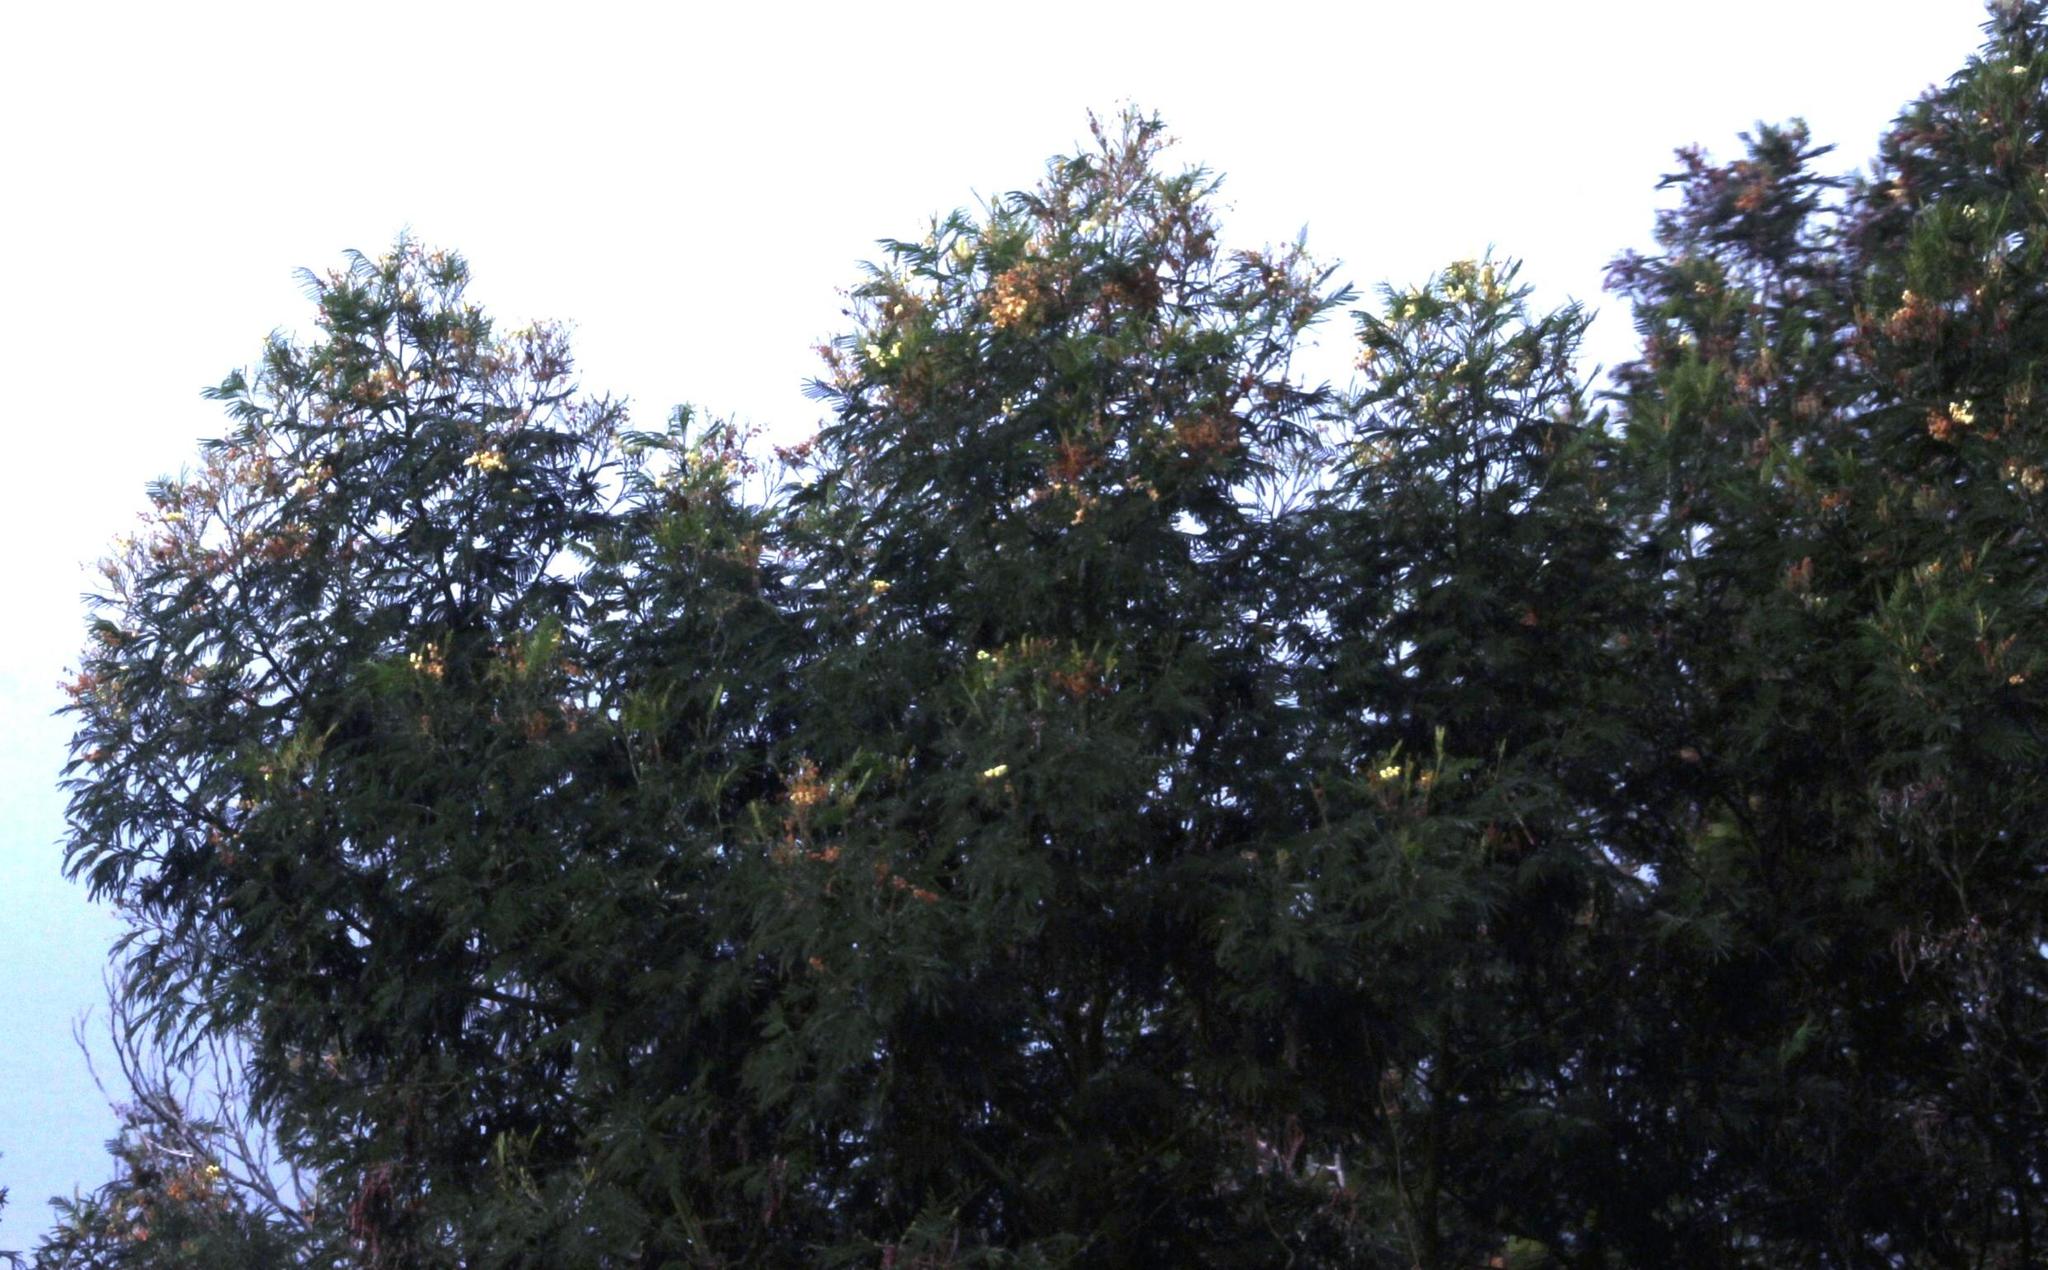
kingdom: Plantae
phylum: Tracheophyta
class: Magnoliopsida
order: Fabales
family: Fabaceae
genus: Acacia
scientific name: Acacia mearnsii
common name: Black wattle
